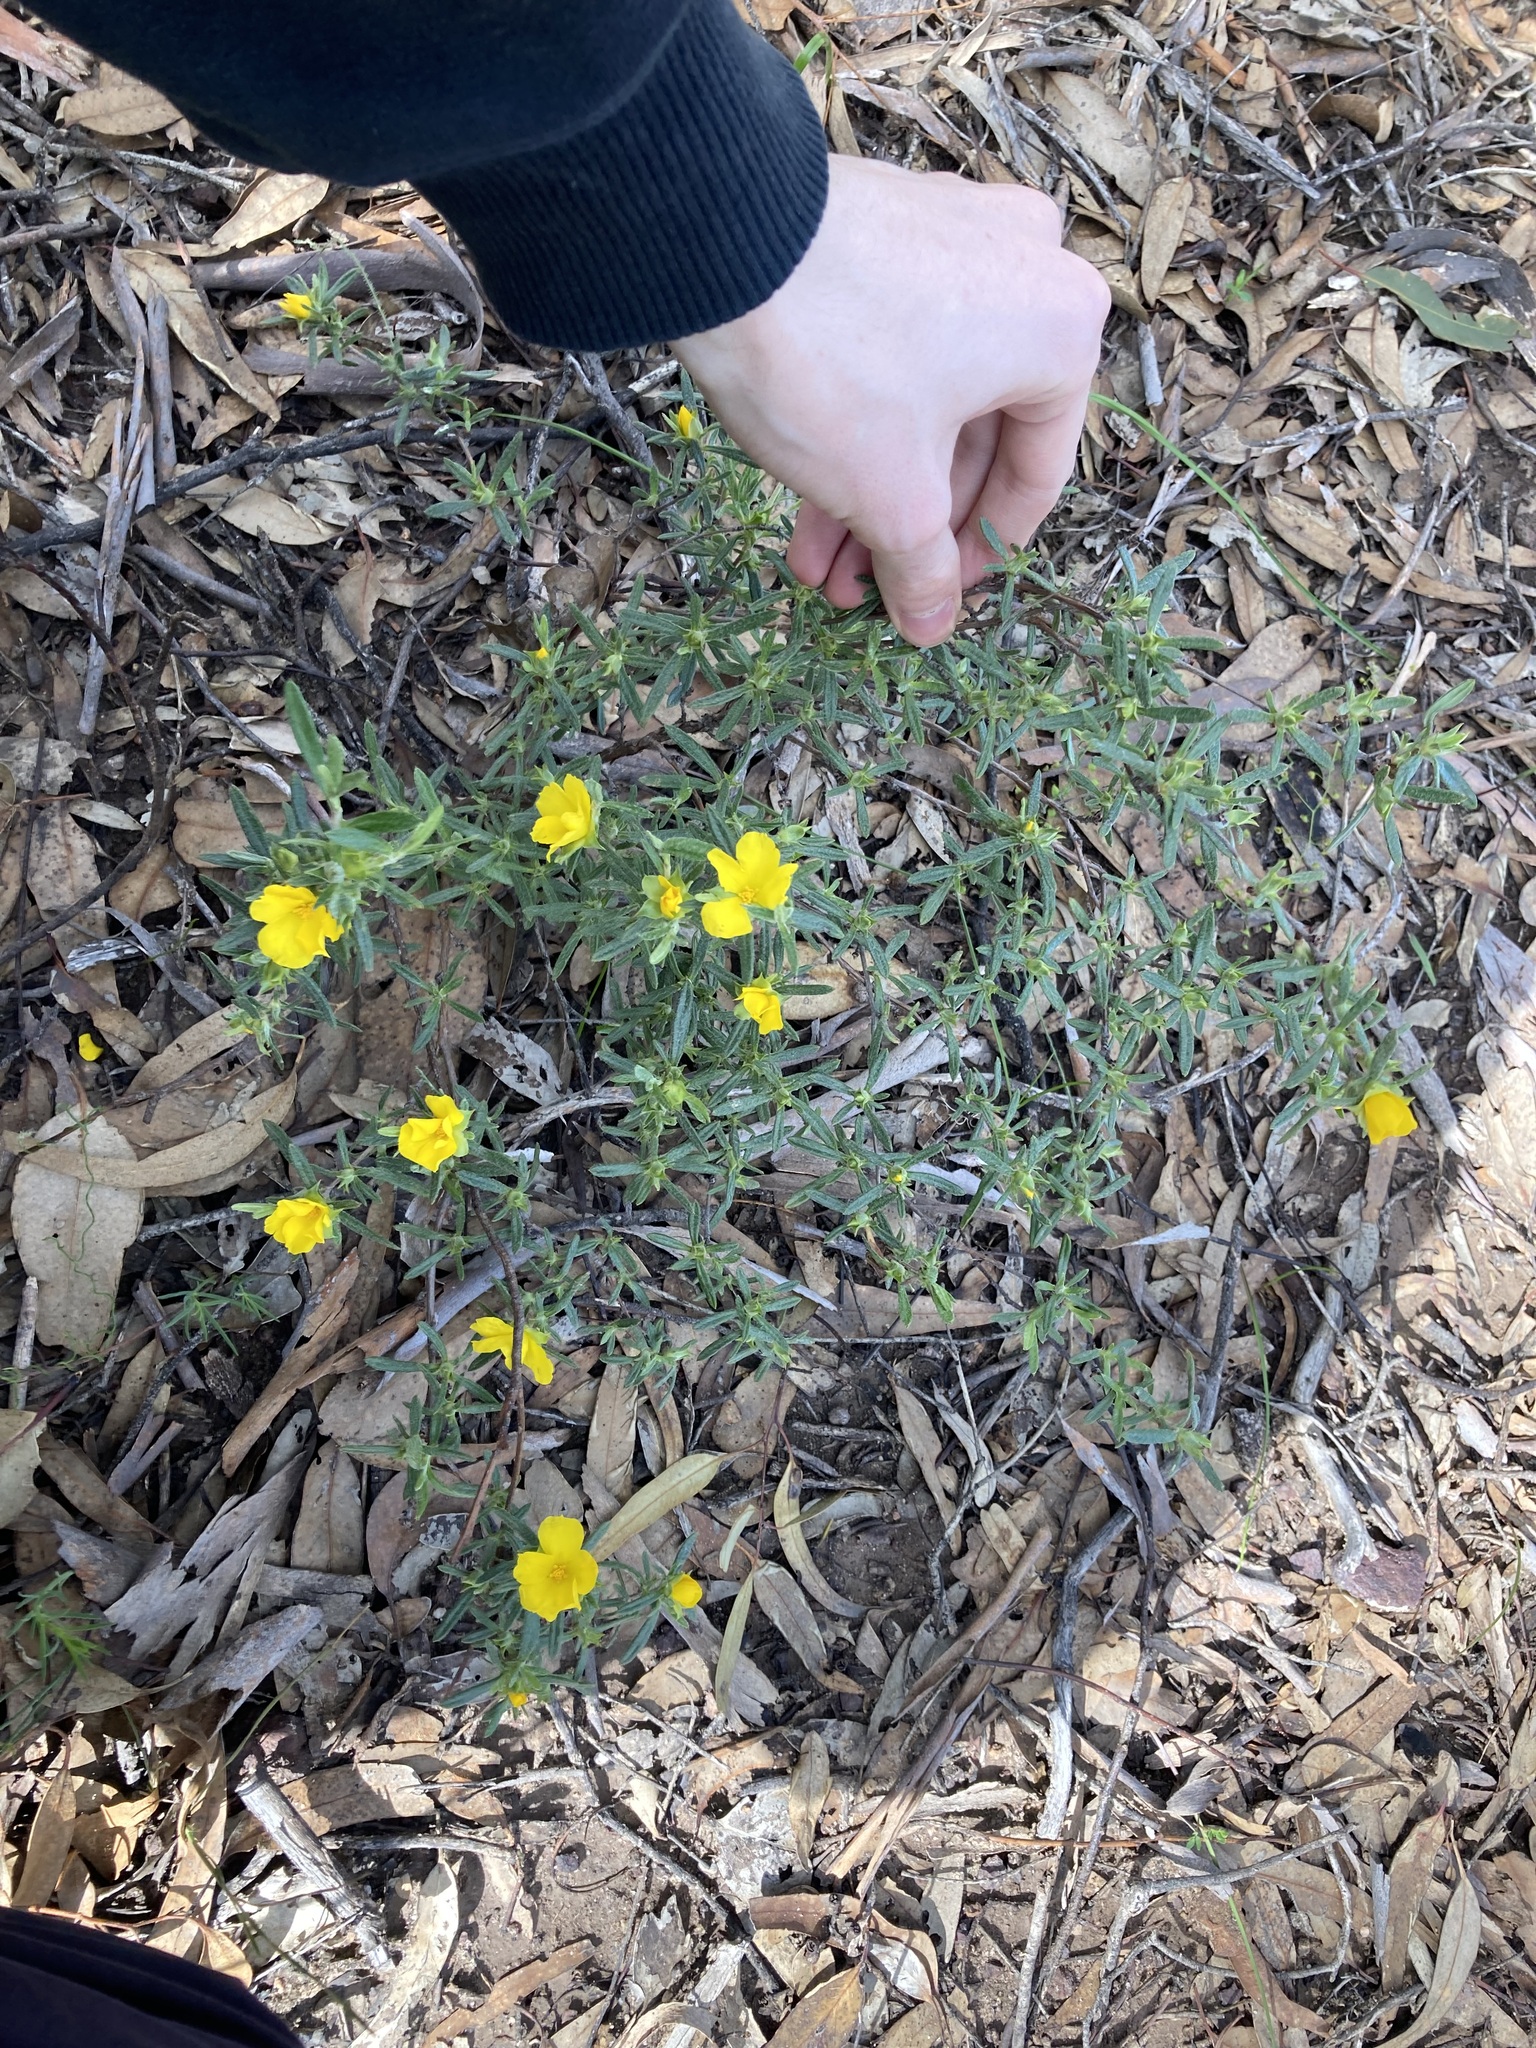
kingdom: Plantae
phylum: Tracheophyta
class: Magnoliopsida
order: Dilleniales
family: Dilleniaceae
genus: Hibbertia
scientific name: Hibbertia squarrosa
